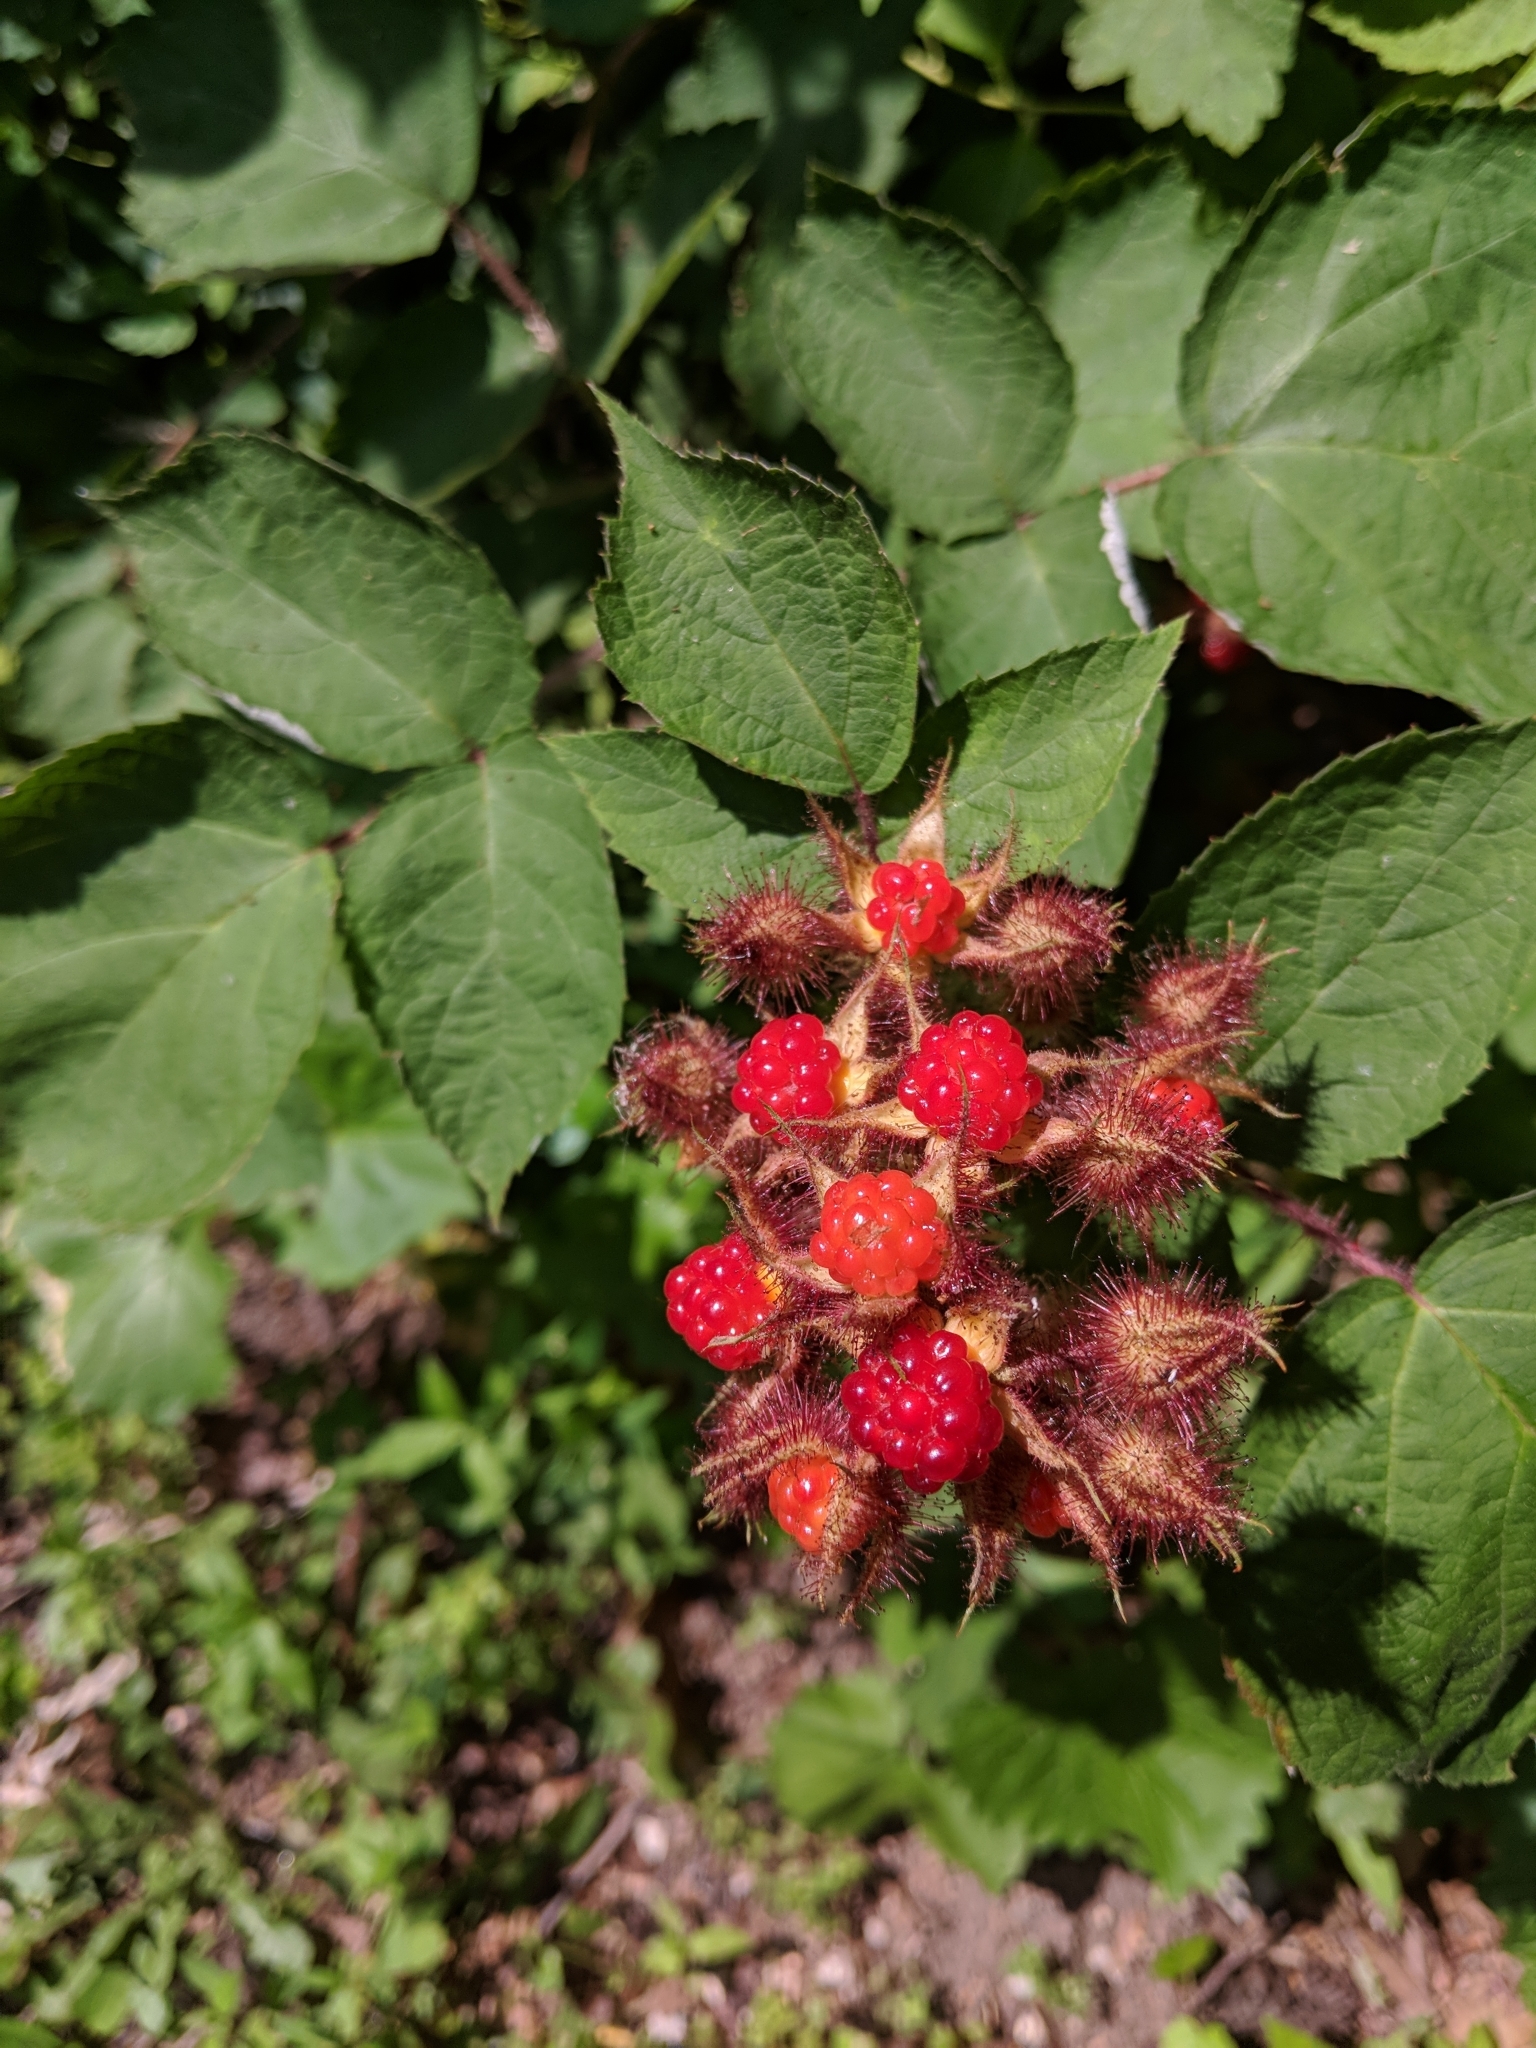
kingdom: Plantae
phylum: Tracheophyta
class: Magnoliopsida
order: Rosales
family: Rosaceae
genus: Rubus
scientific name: Rubus phoenicolasius
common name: Japanese wineberry
